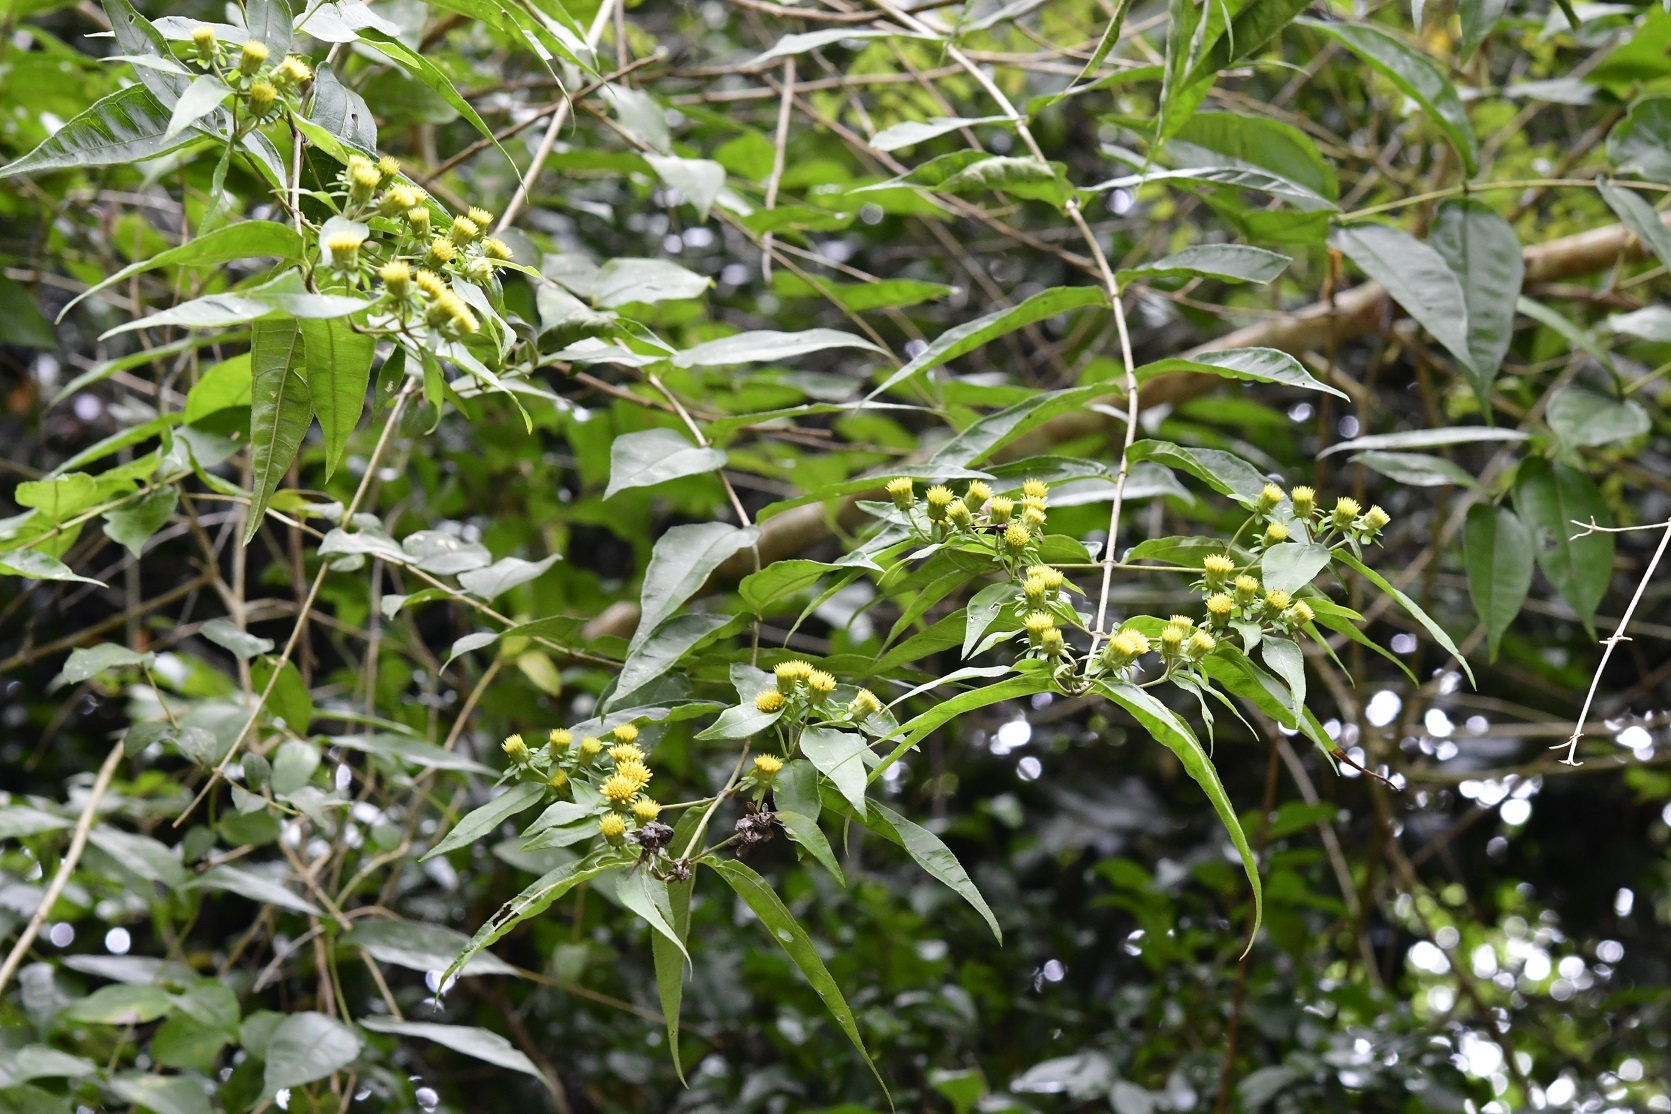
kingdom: Plantae
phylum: Tracheophyta
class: Magnoliopsida
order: Asterales
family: Asteraceae
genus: Otopappus
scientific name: Otopappus brevipes
